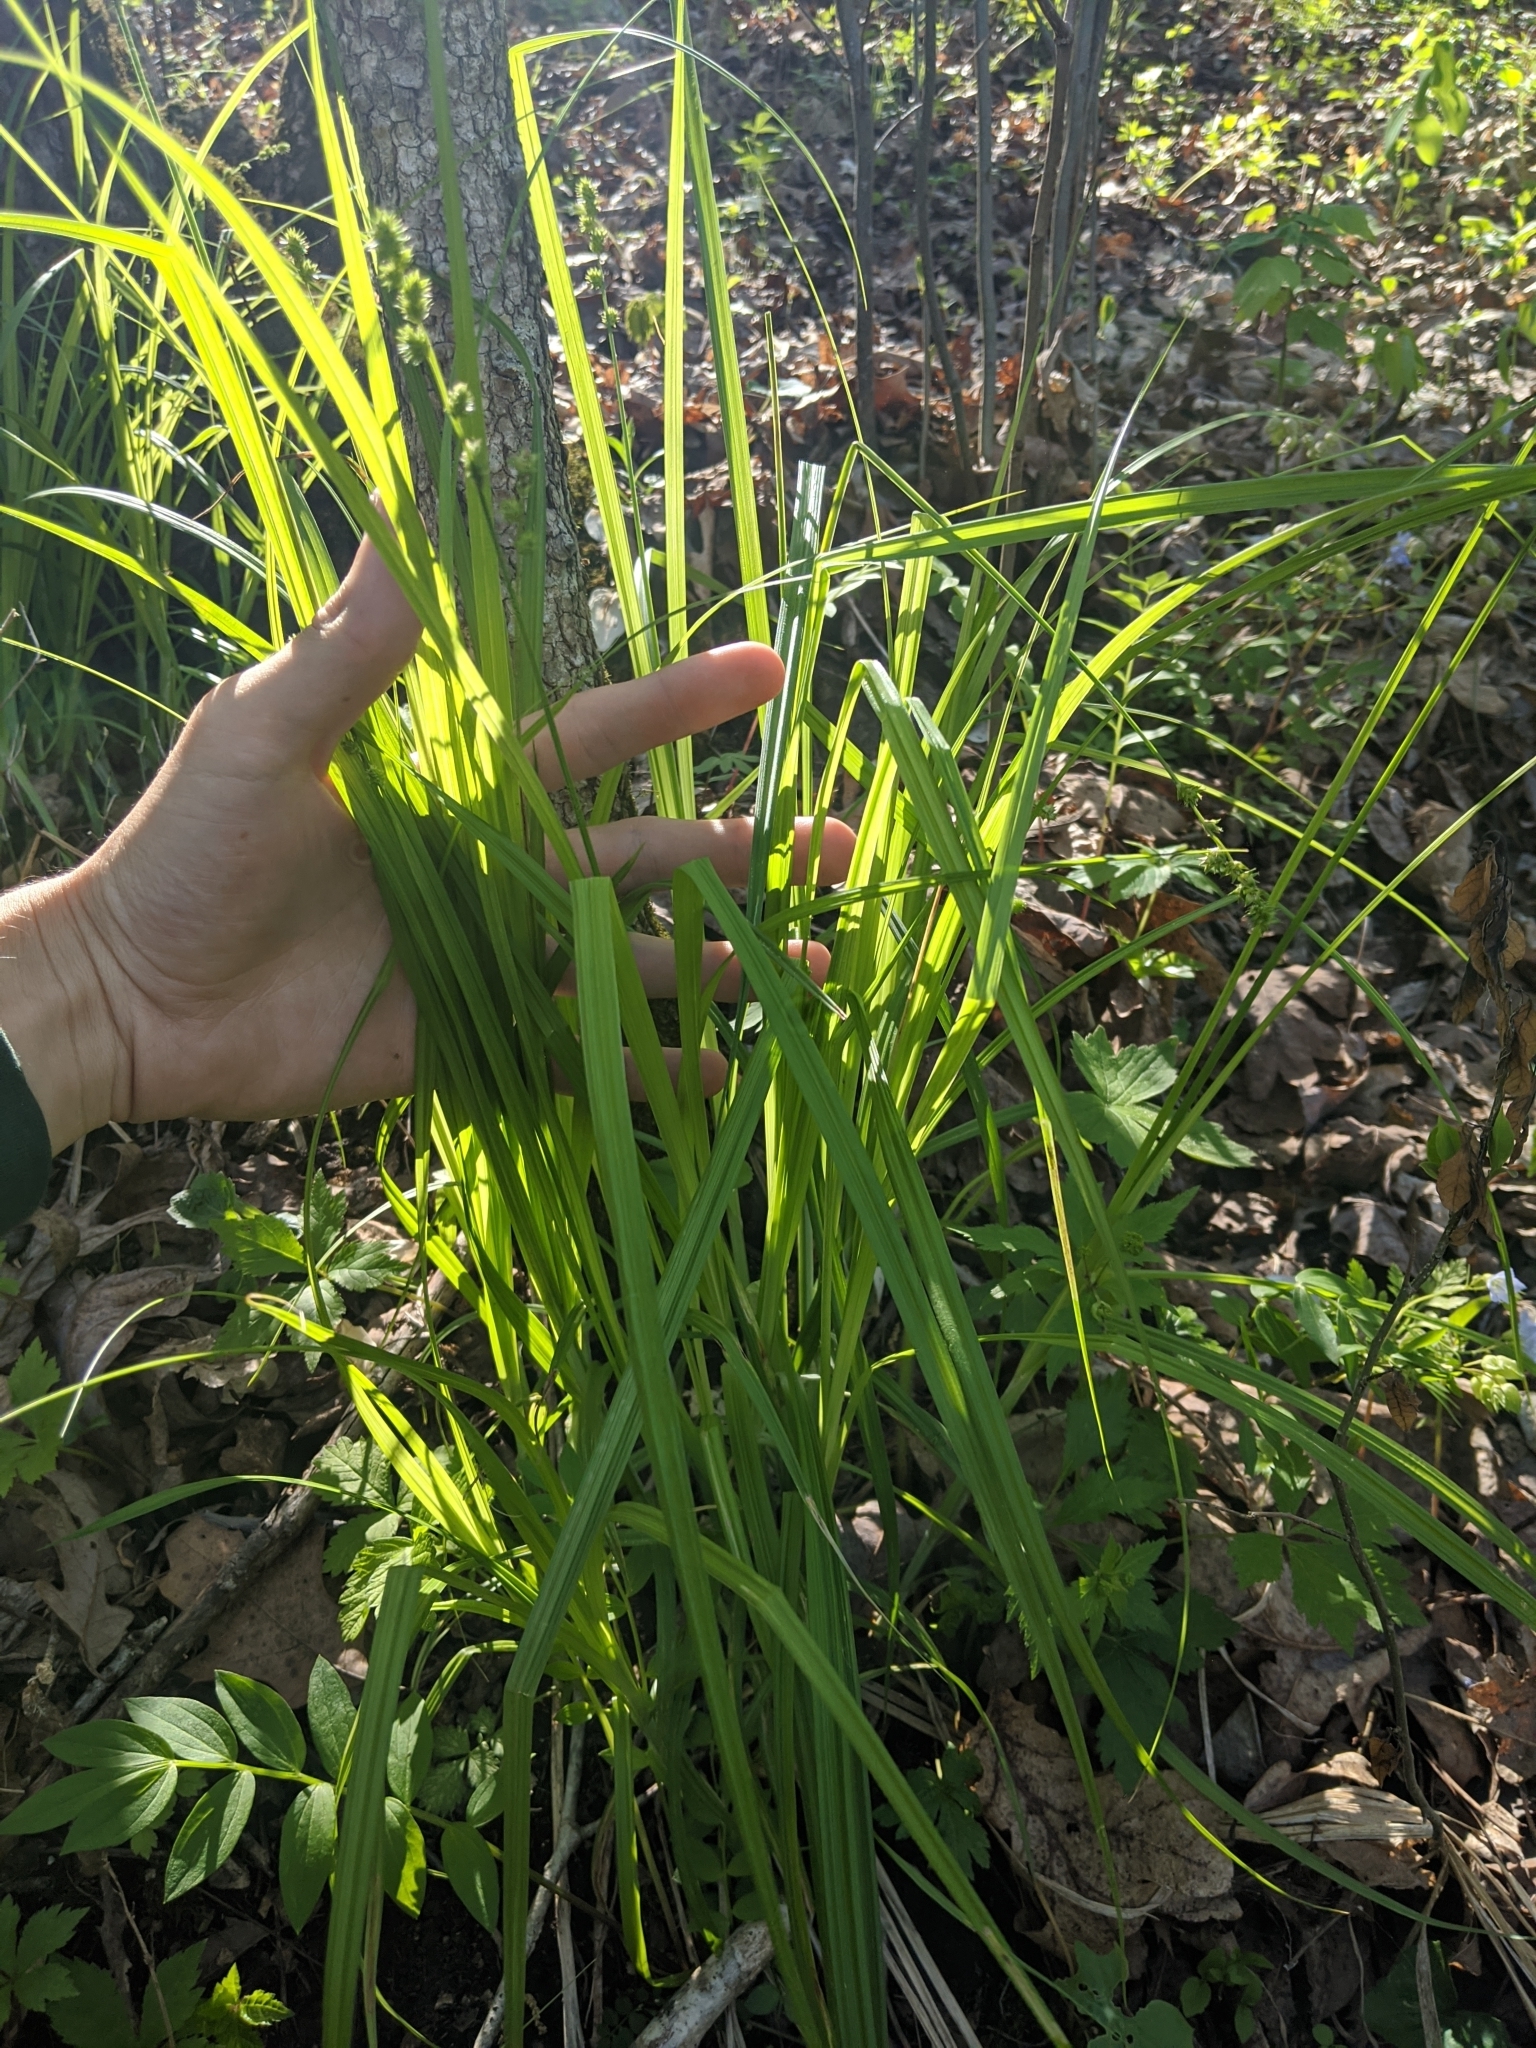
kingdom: Plantae
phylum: Tracheophyta
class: Liliopsida
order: Poales
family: Cyperaceae
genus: Carex
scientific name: Carex sparganioides
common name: Burreed sedge
